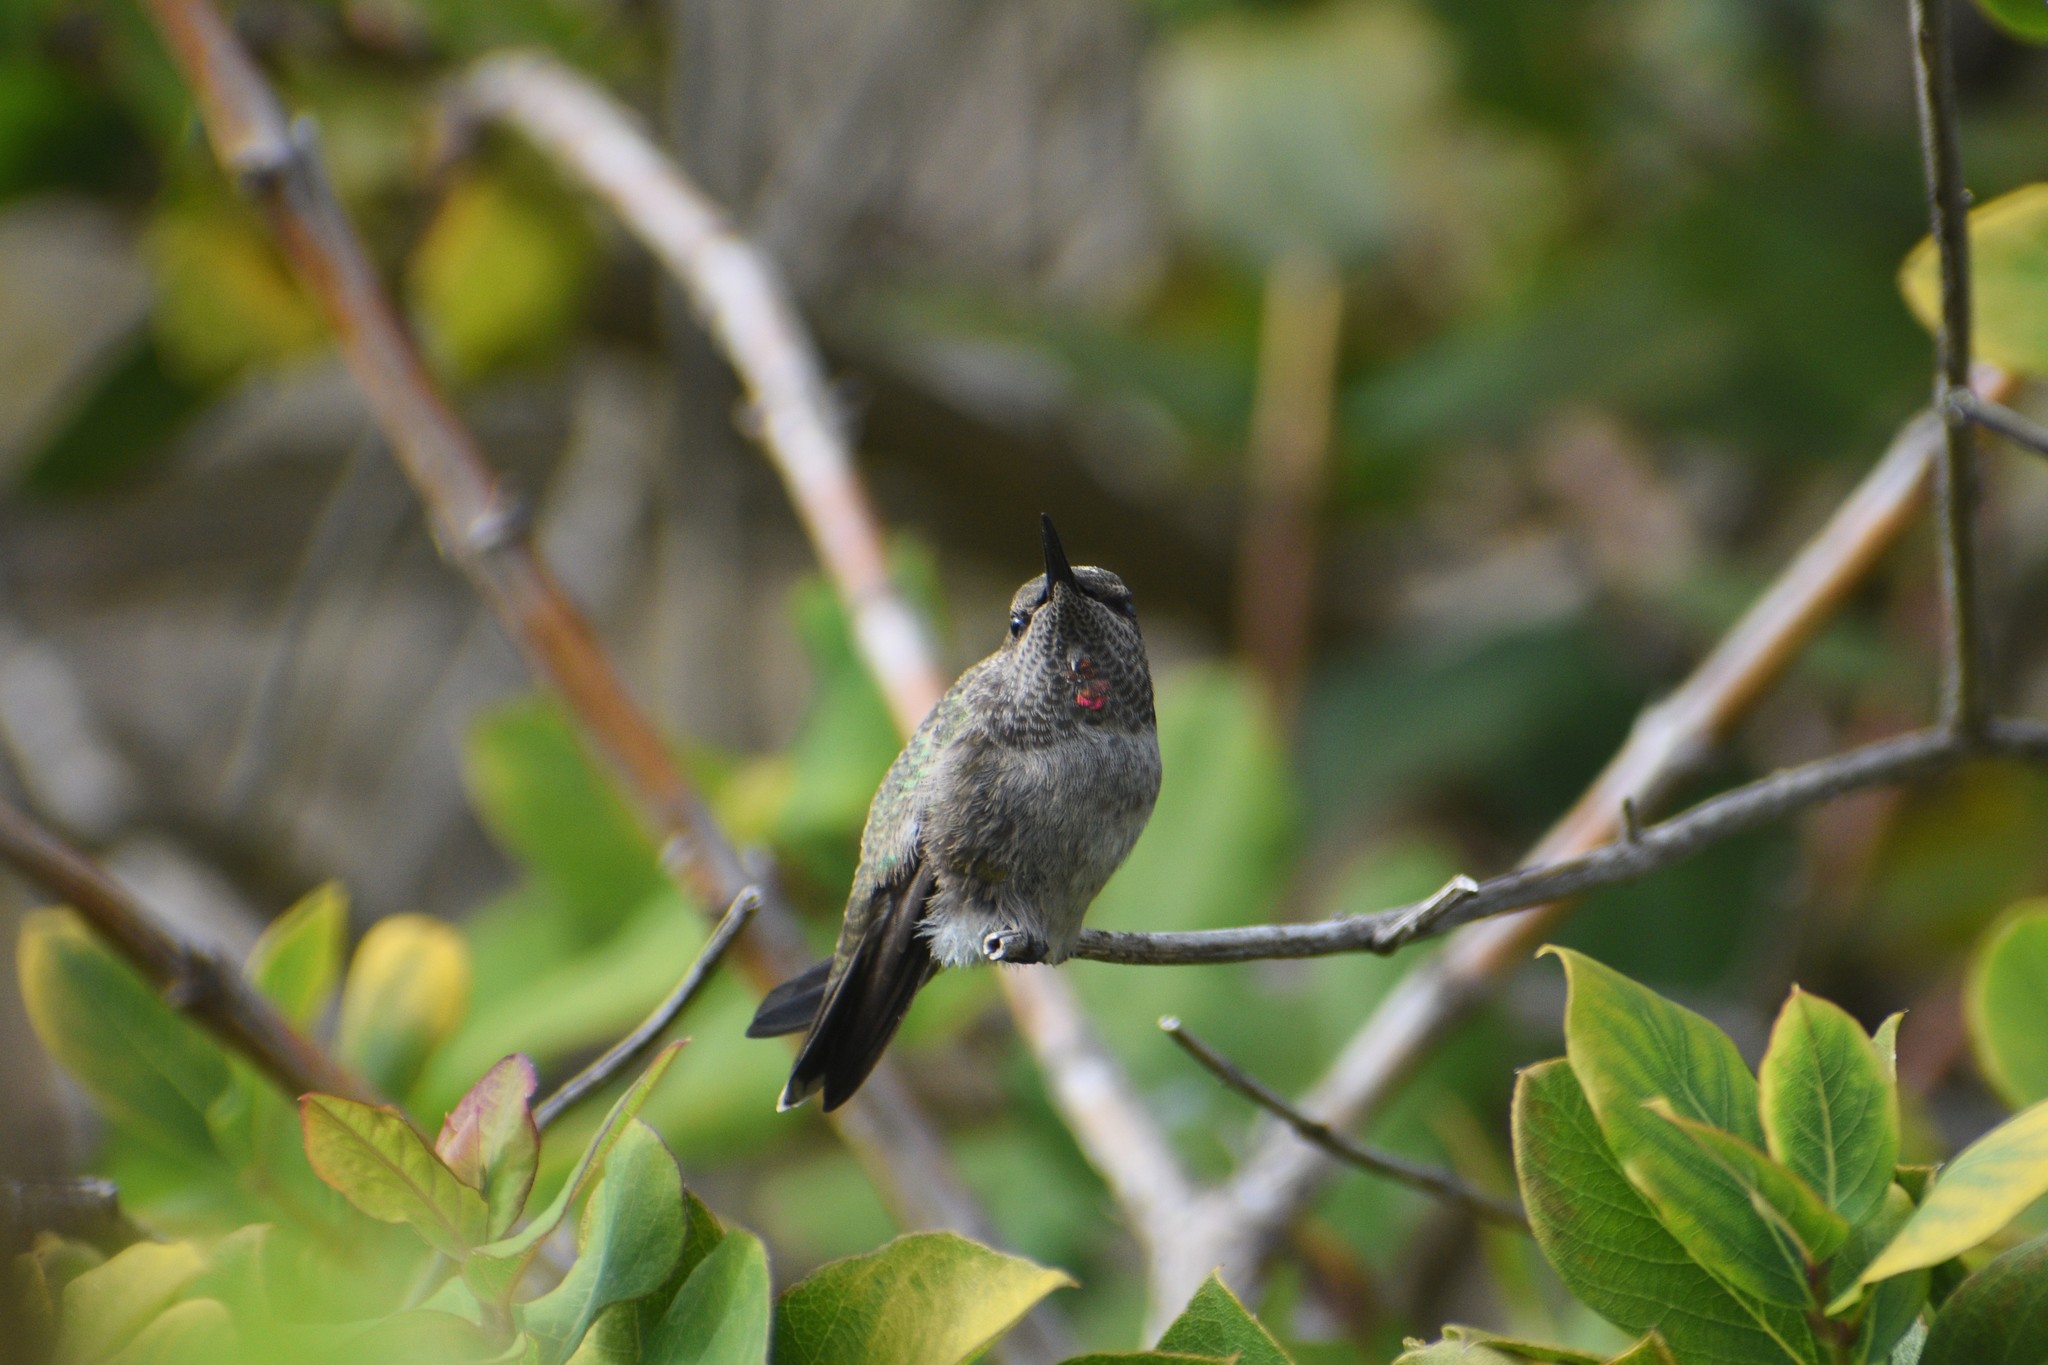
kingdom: Animalia
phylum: Chordata
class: Aves
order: Apodiformes
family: Trochilidae
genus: Calypte
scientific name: Calypte anna
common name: Anna's hummingbird
